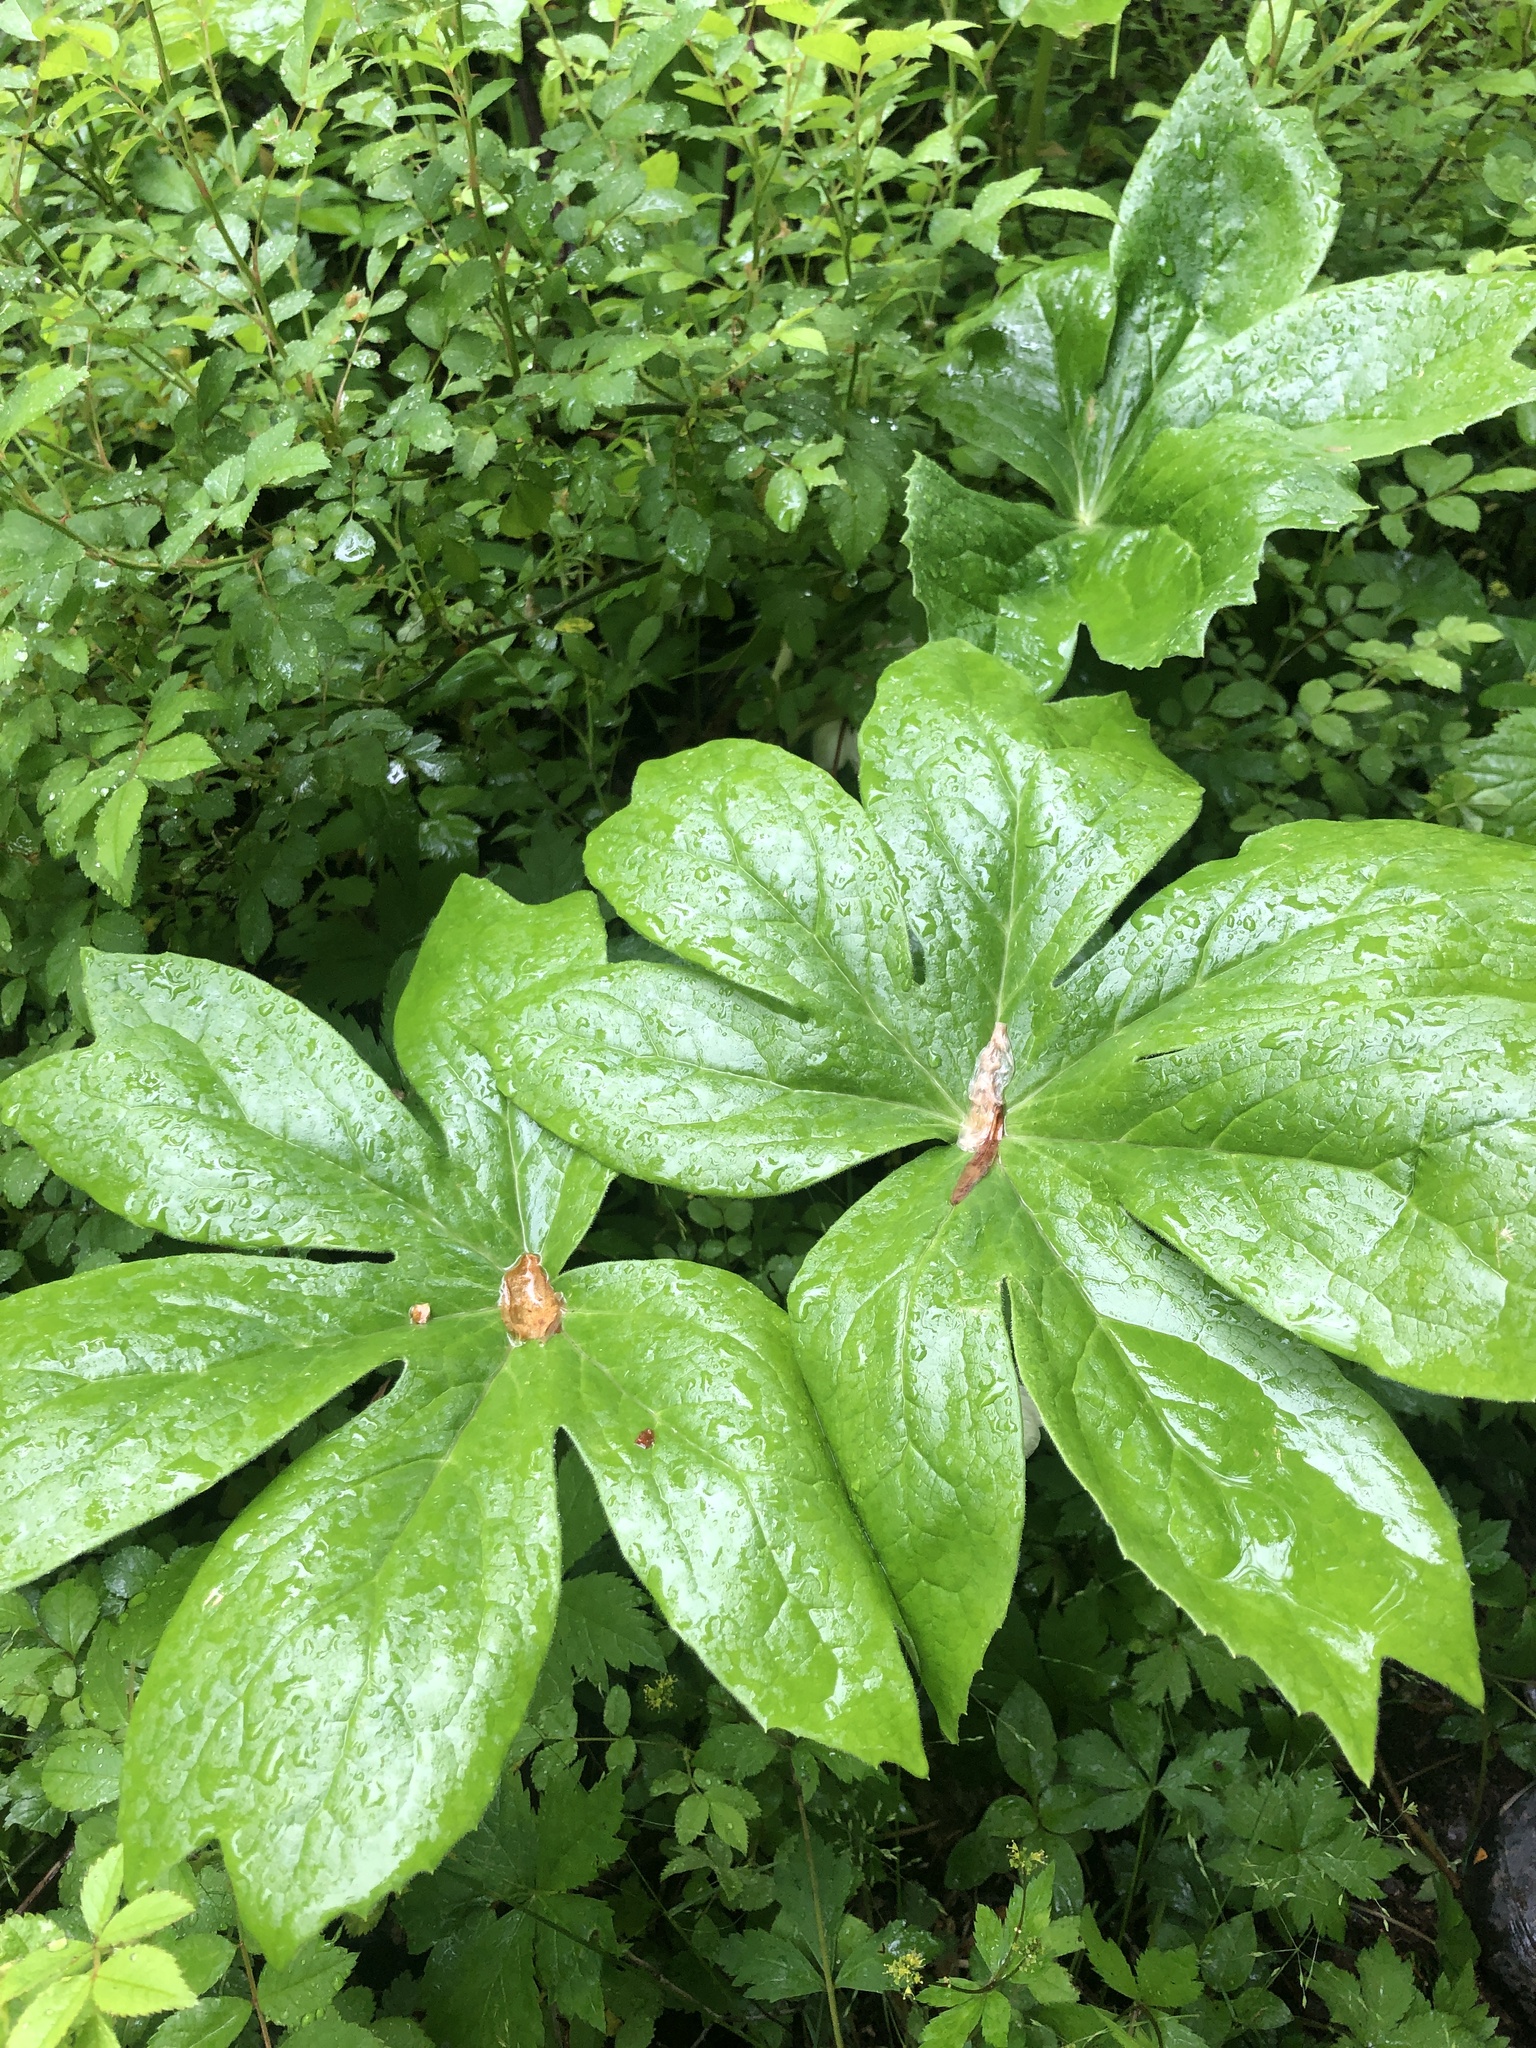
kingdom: Plantae
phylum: Tracheophyta
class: Magnoliopsida
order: Ranunculales
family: Berberidaceae
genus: Podophyllum
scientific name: Podophyllum peltatum
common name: Wild mandrake
